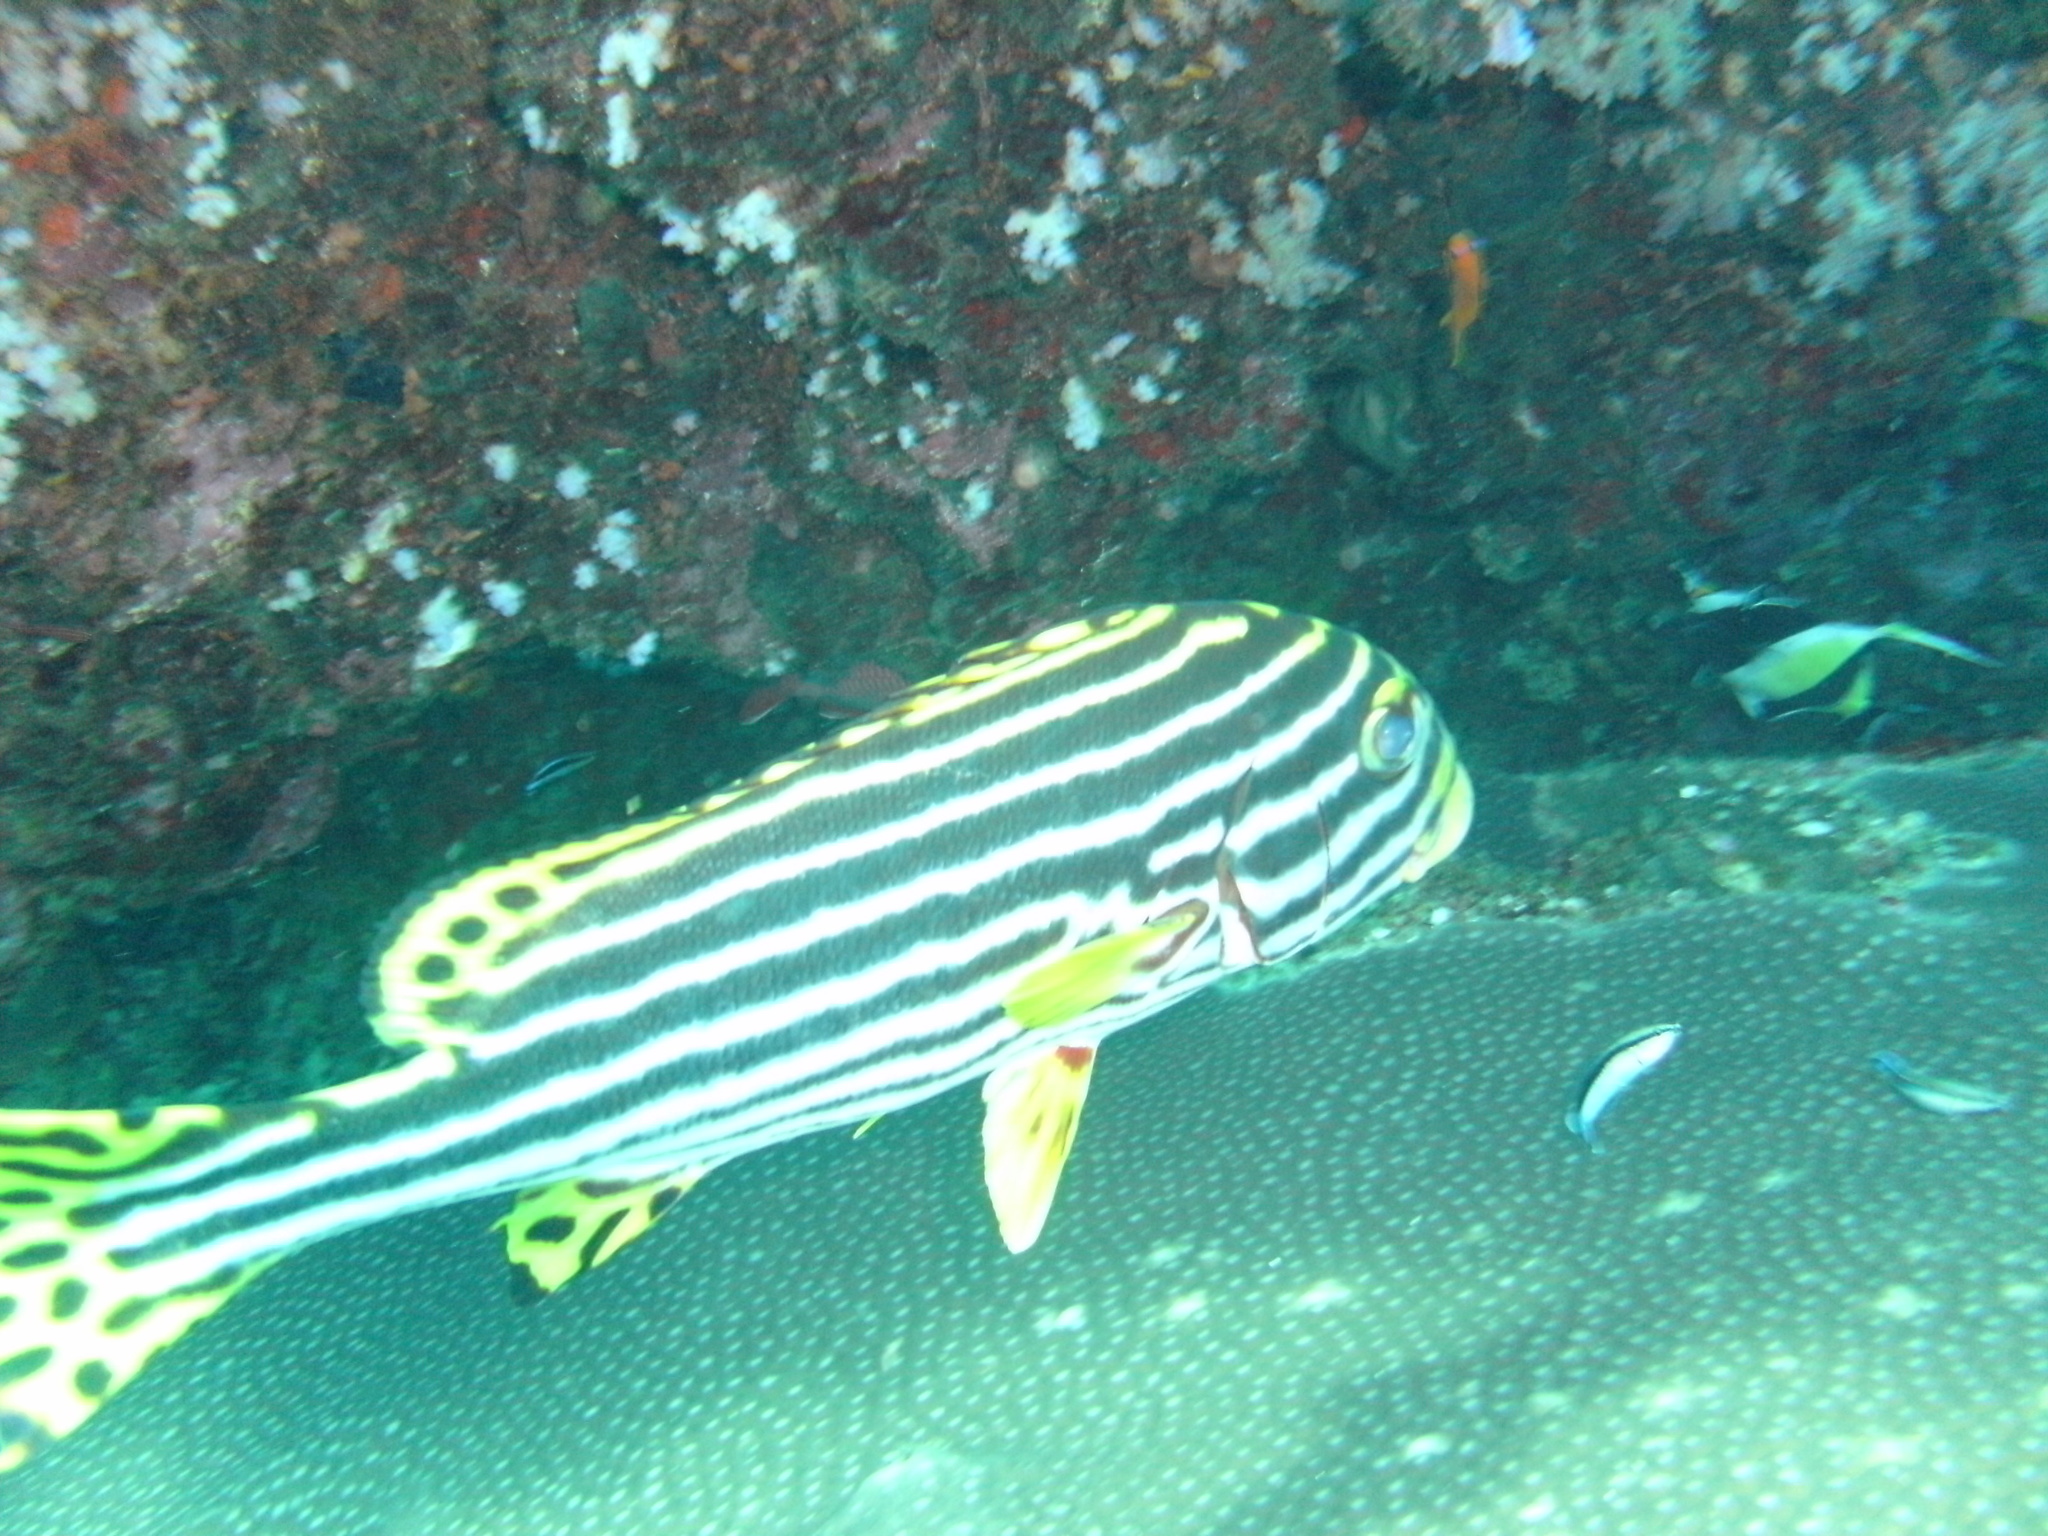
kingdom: Animalia
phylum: Chordata
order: Perciformes
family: Haemulidae
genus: Plectorhinchus
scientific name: Plectorhinchus vittatus
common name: Oriental sweetlips
